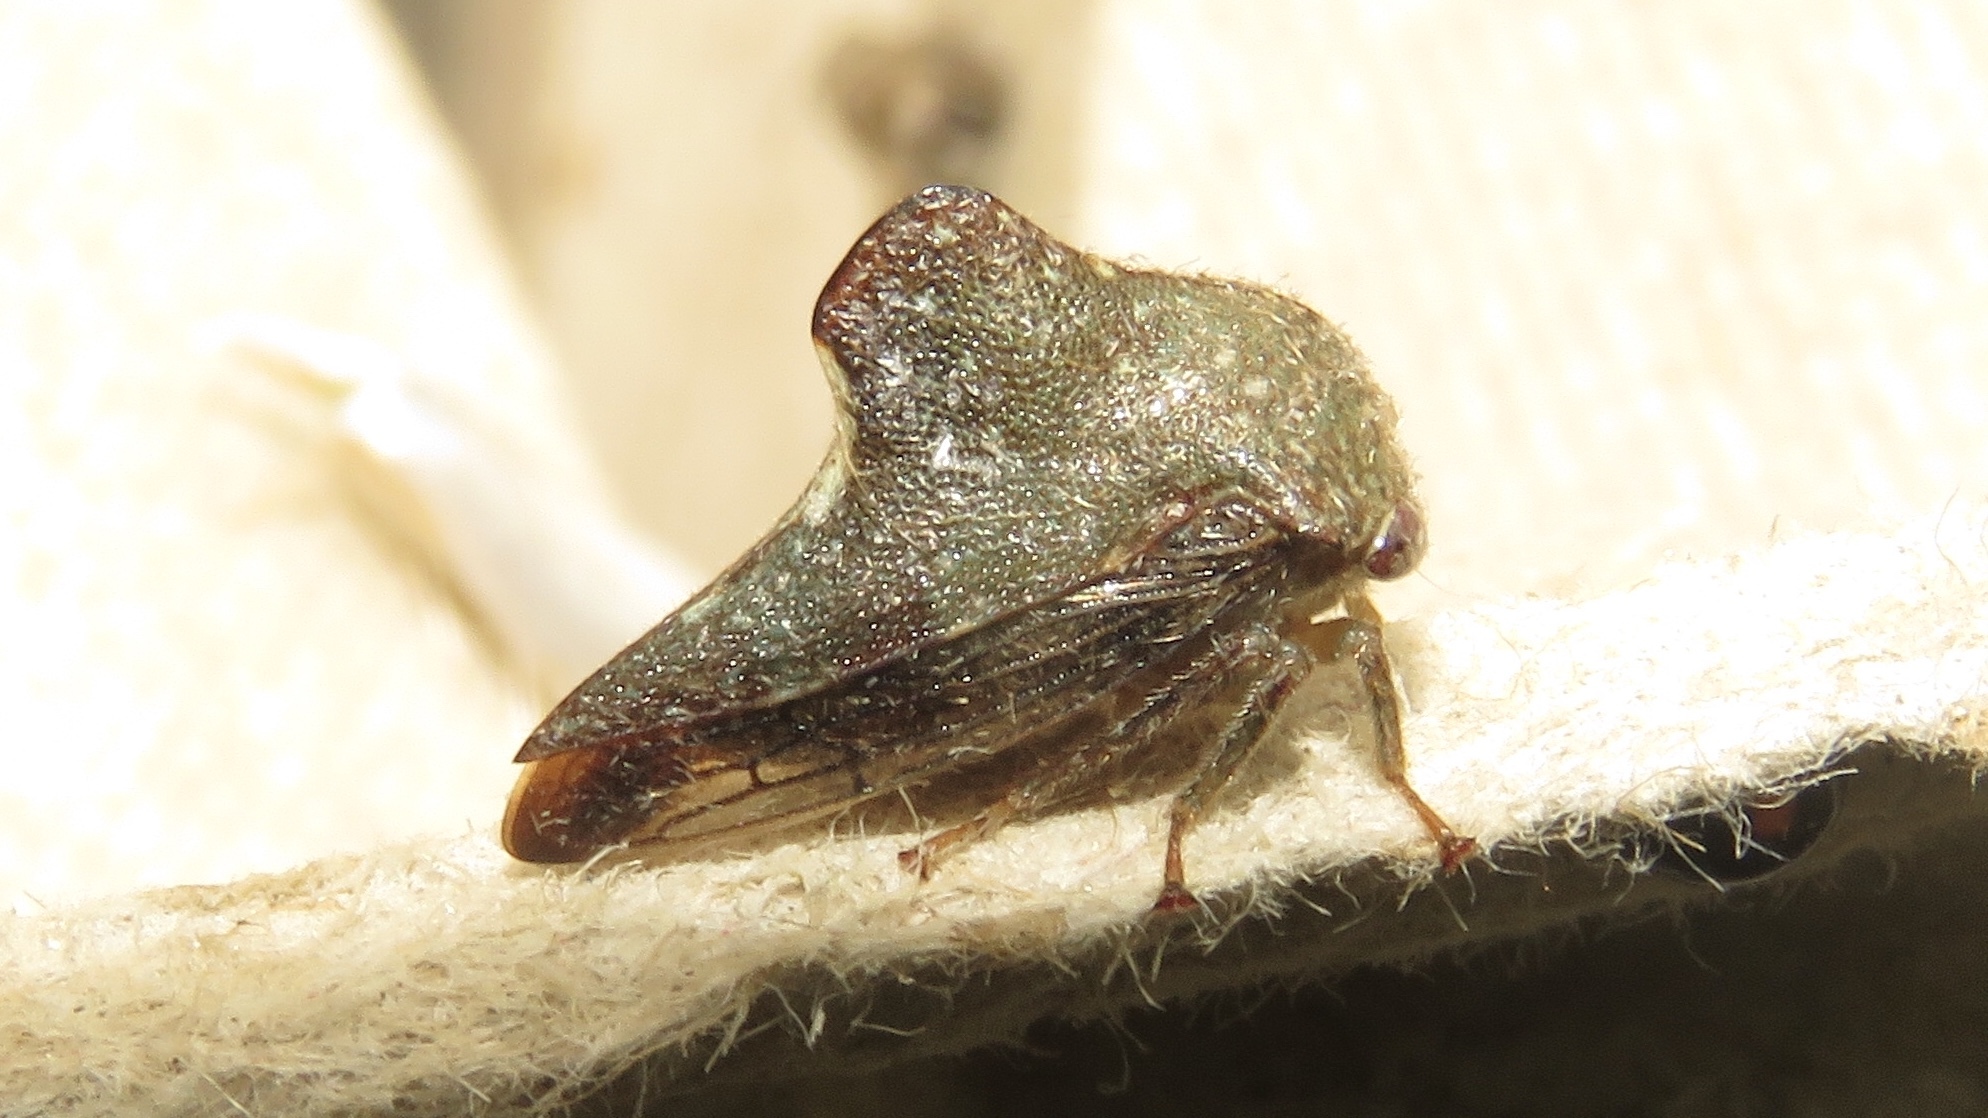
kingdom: Animalia
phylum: Arthropoda
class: Insecta
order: Hemiptera
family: Membracidae
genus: Telamona
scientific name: Telamona monticola
